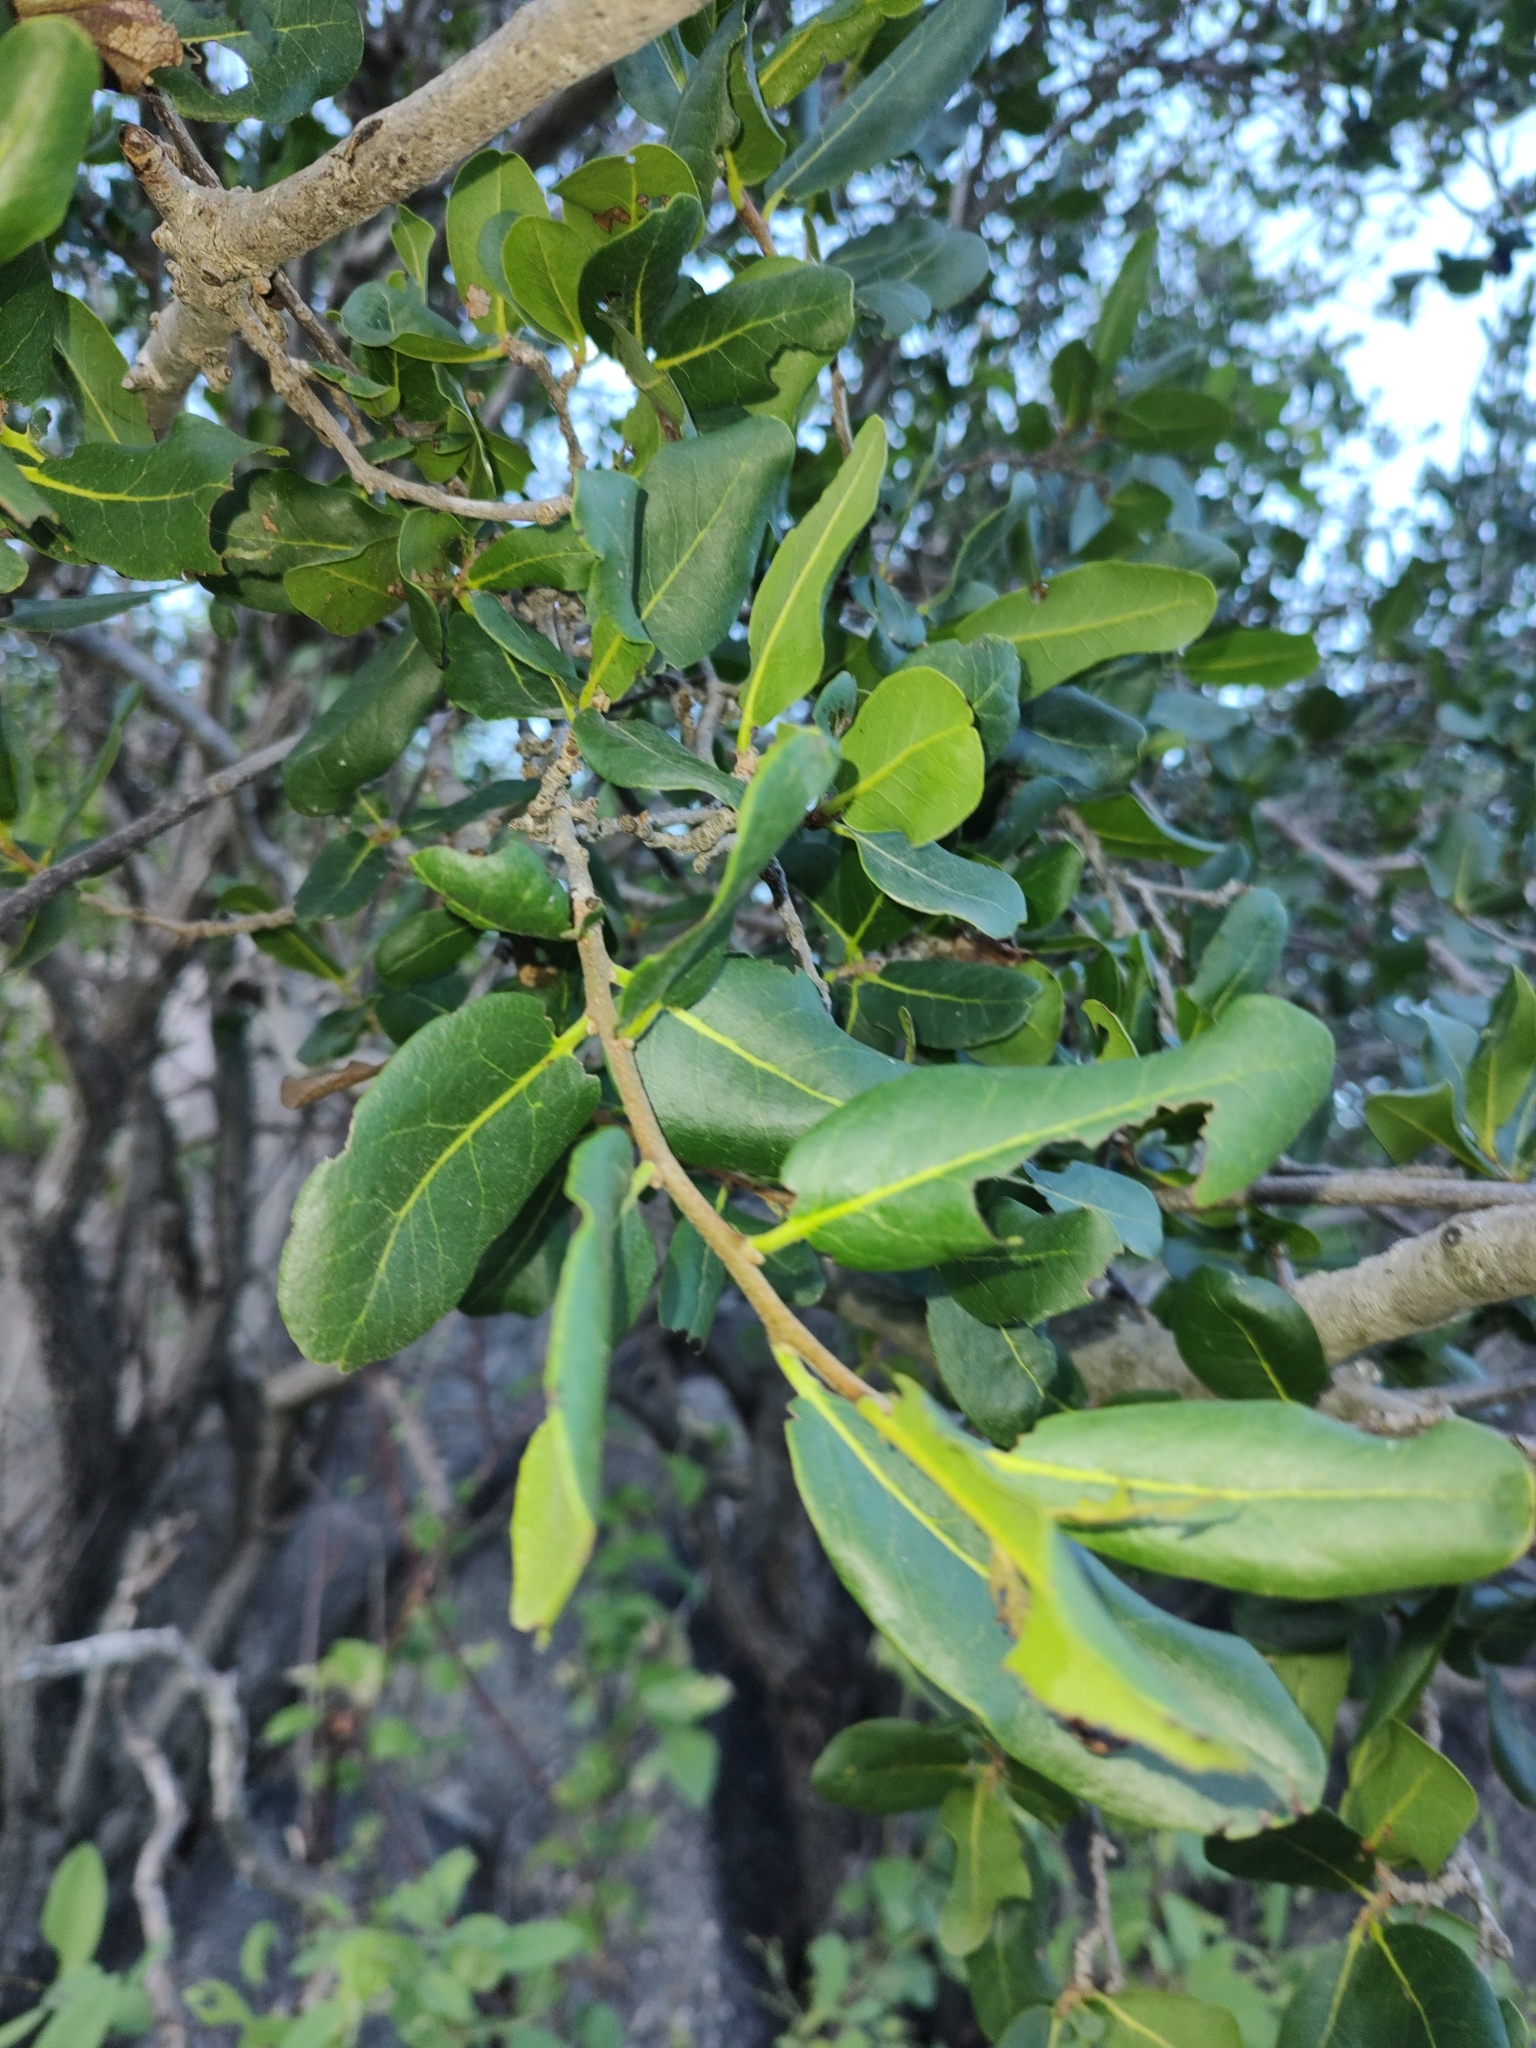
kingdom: Plantae
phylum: Tracheophyta
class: Magnoliopsida
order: Sapindales
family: Rutaceae
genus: Esenbeckia
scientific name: Esenbeckia flava
